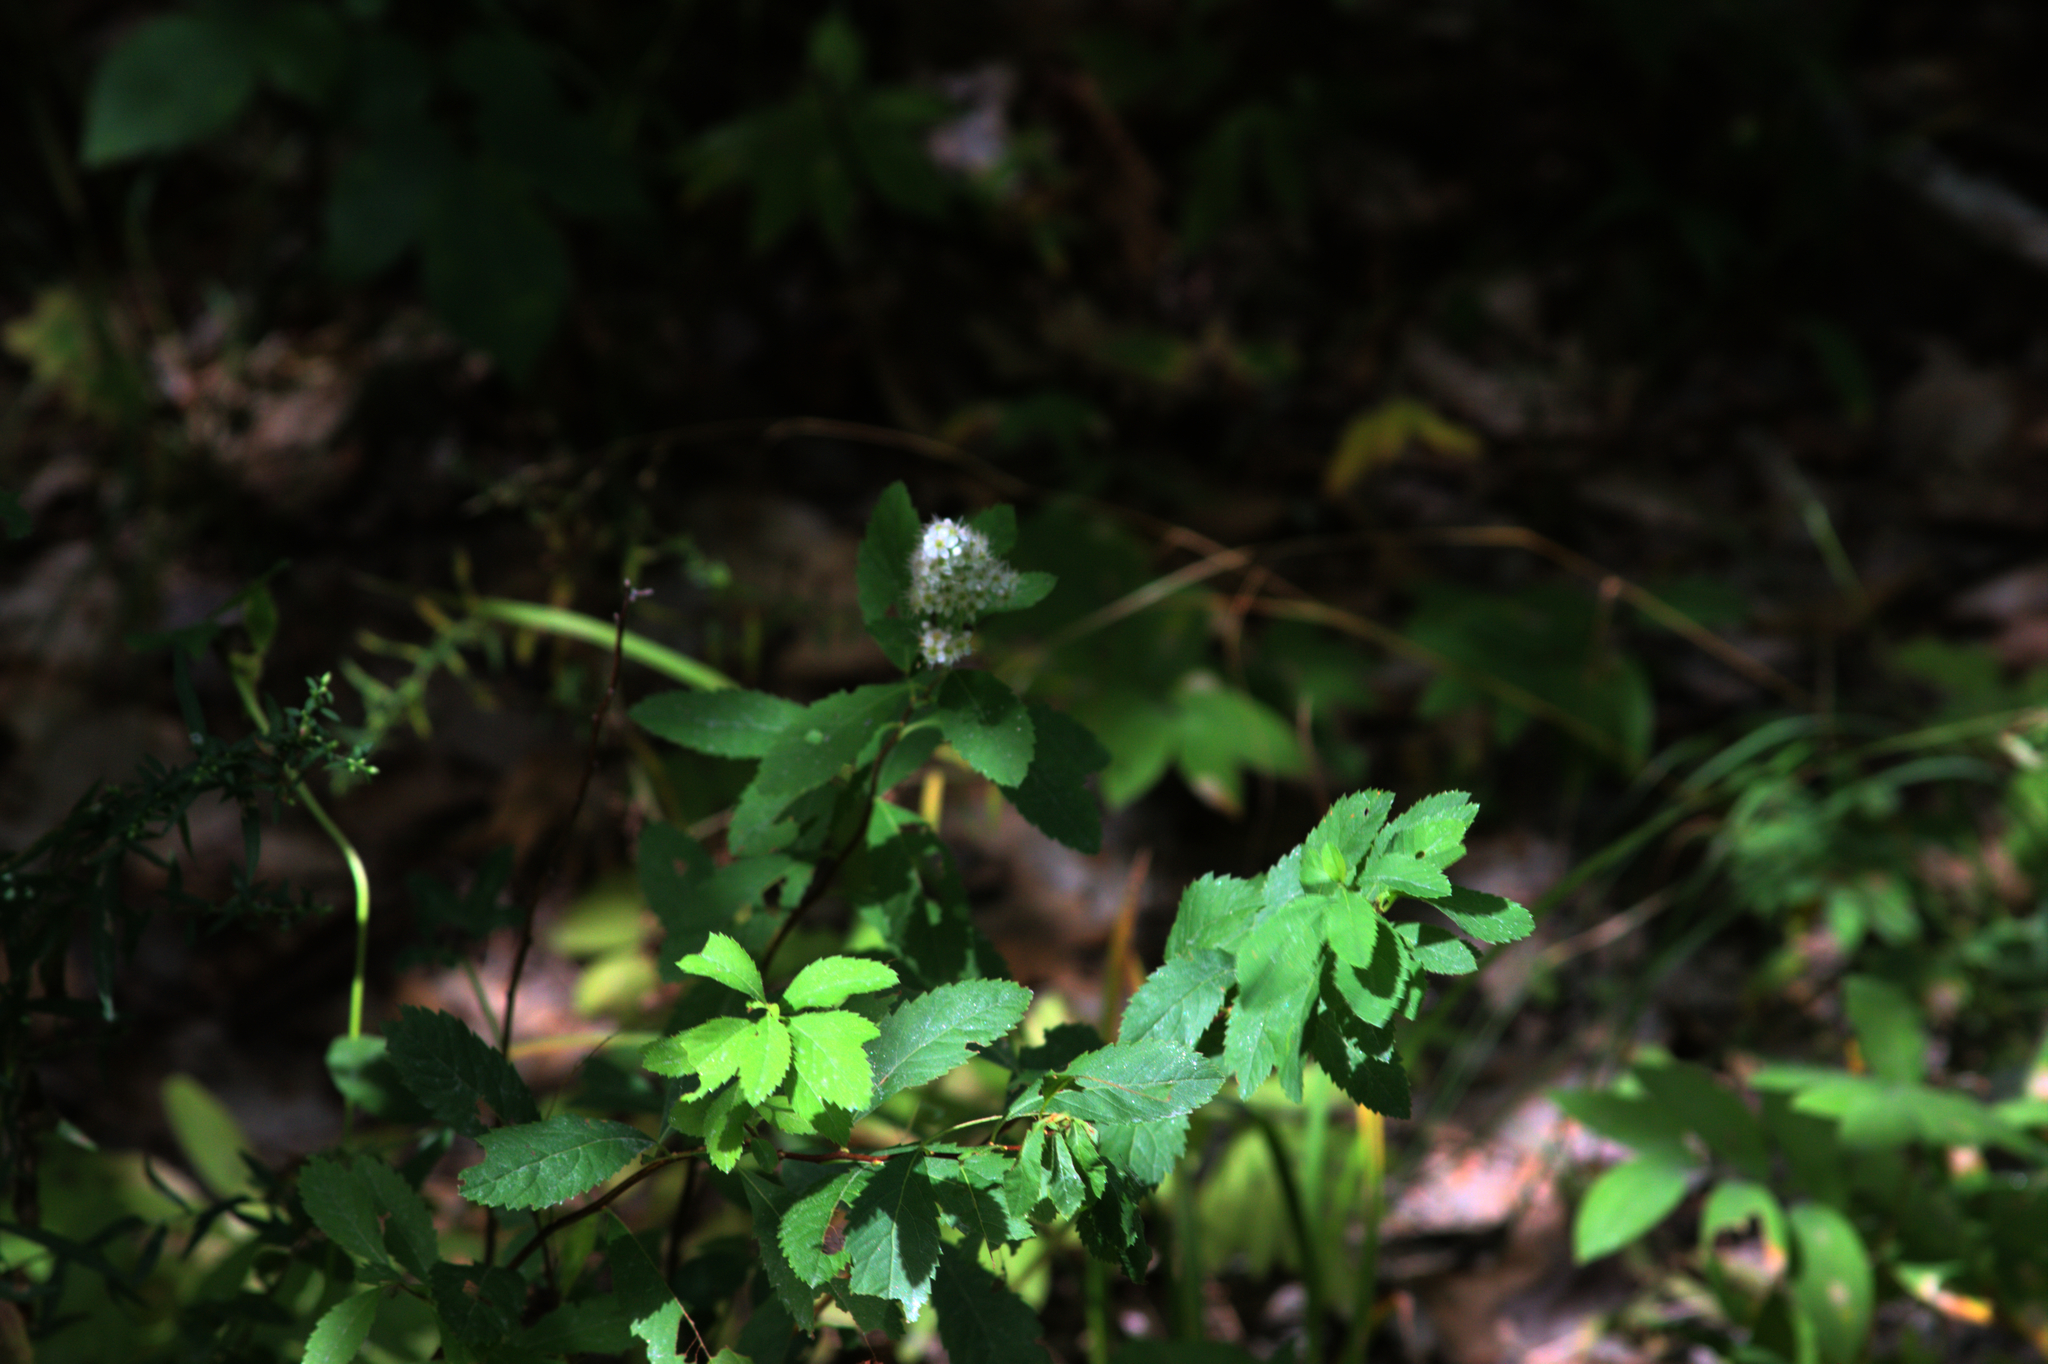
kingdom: Plantae
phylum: Tracheophyta
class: Magnoliopsida
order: Rosales
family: Rosaceae
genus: Spiraea
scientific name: Spiraea alba
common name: Pale bridewort
